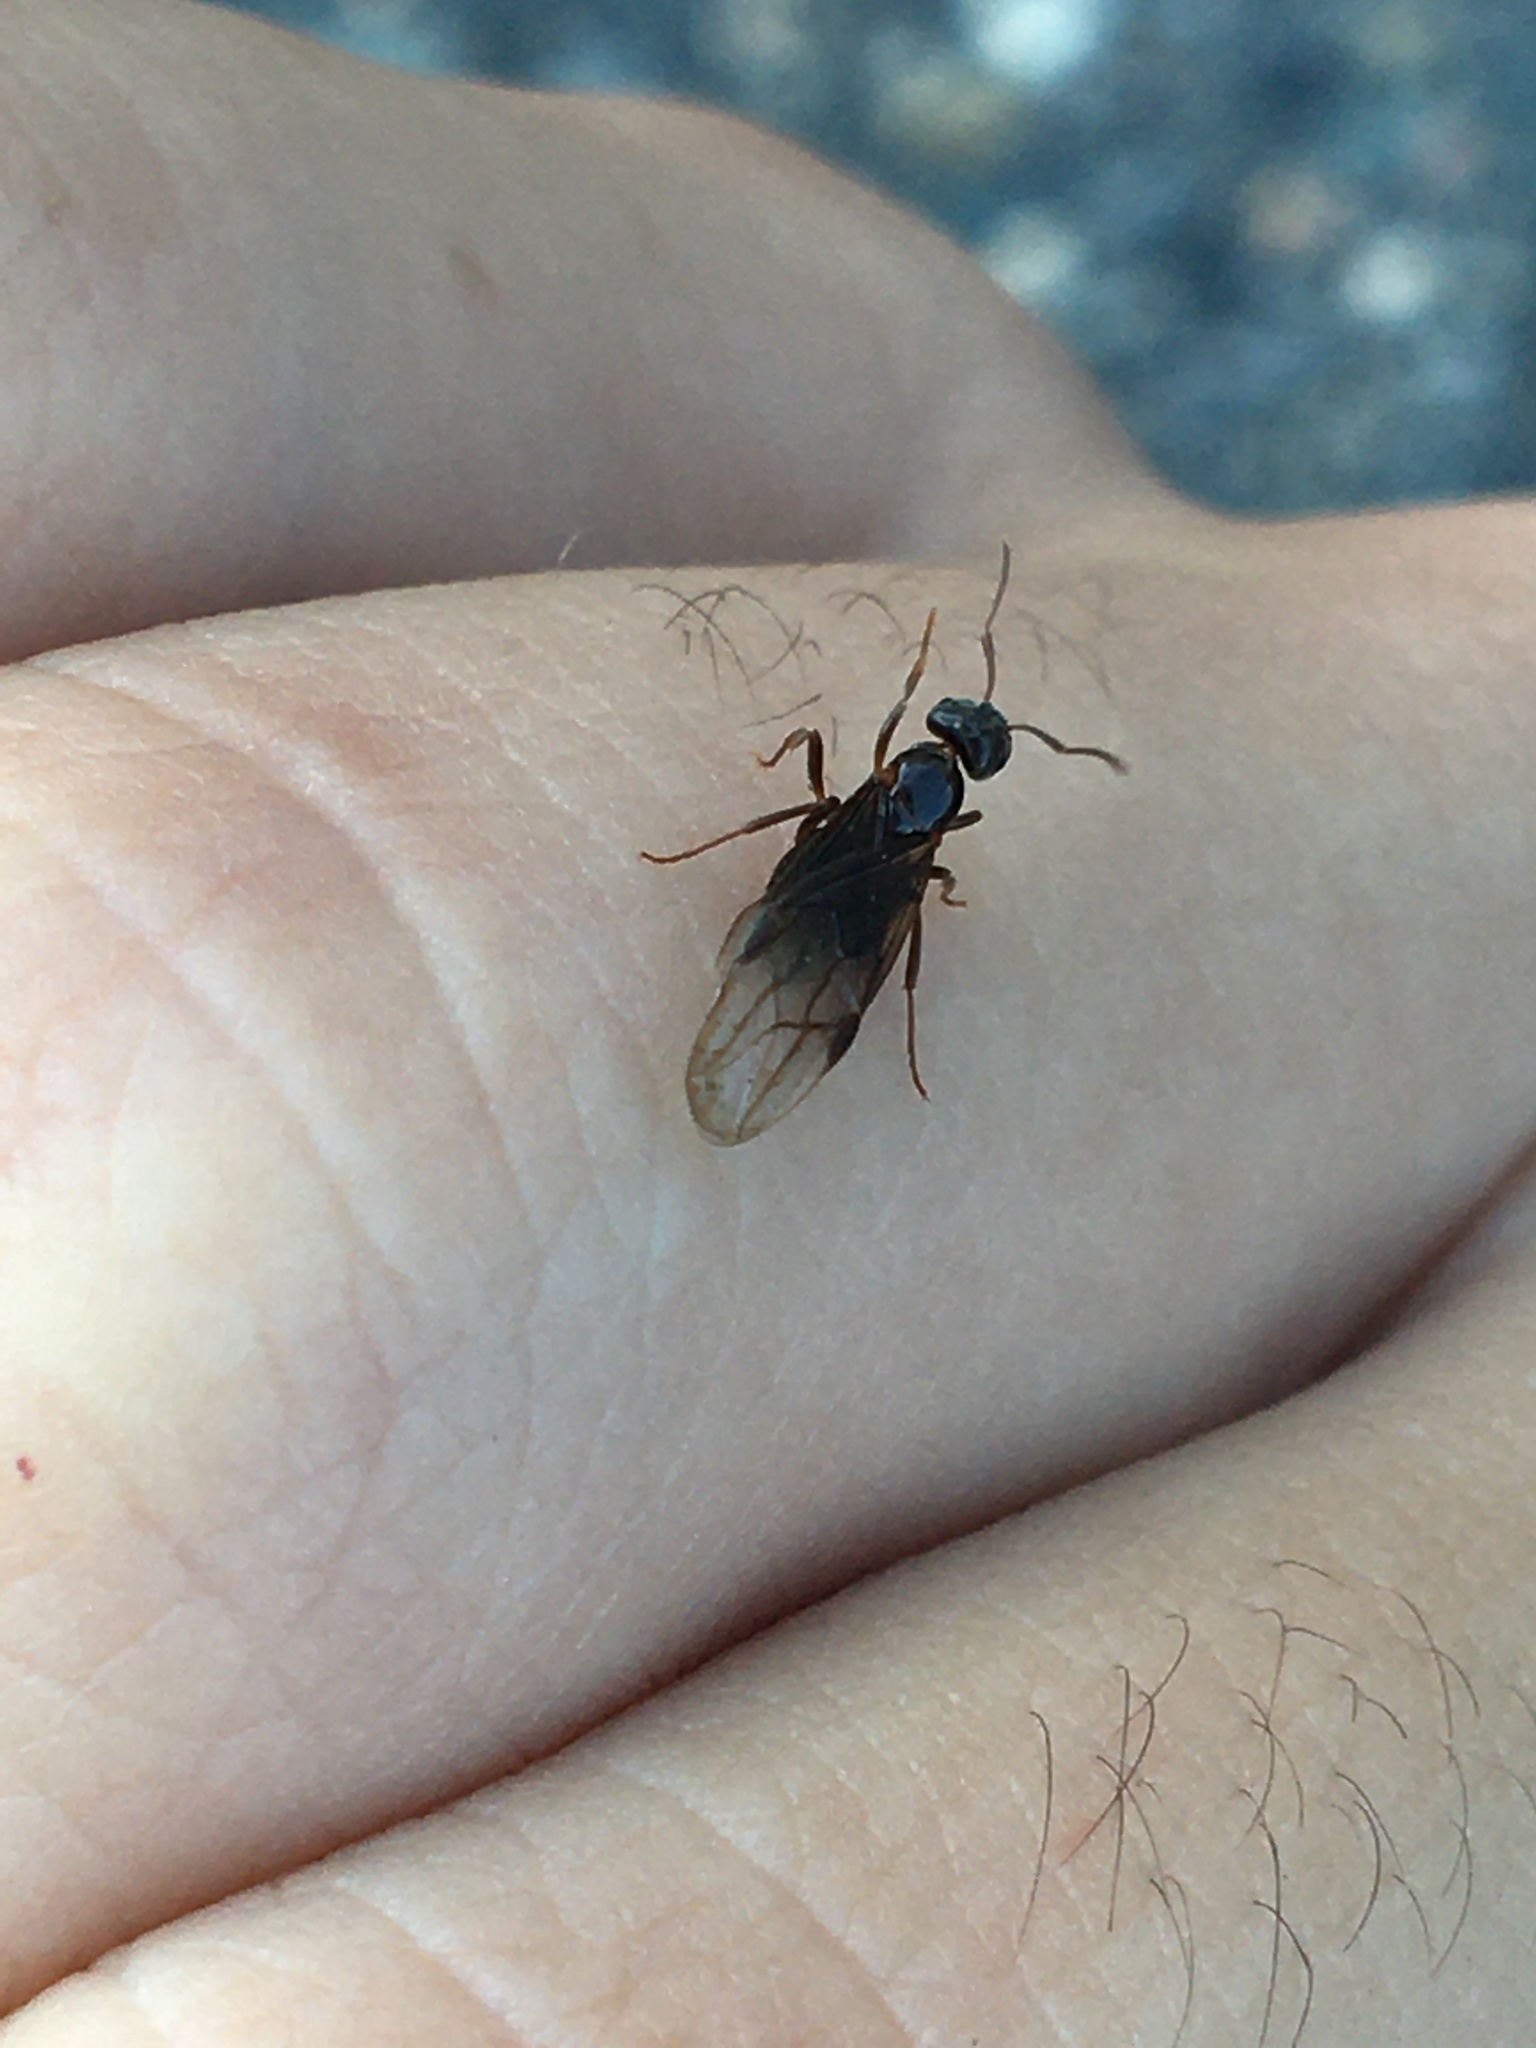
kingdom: Animalia
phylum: Arthropoda
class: Insecta
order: Hymenoptera
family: Formicidae
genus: Lasius
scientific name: Lasius aphidicola
